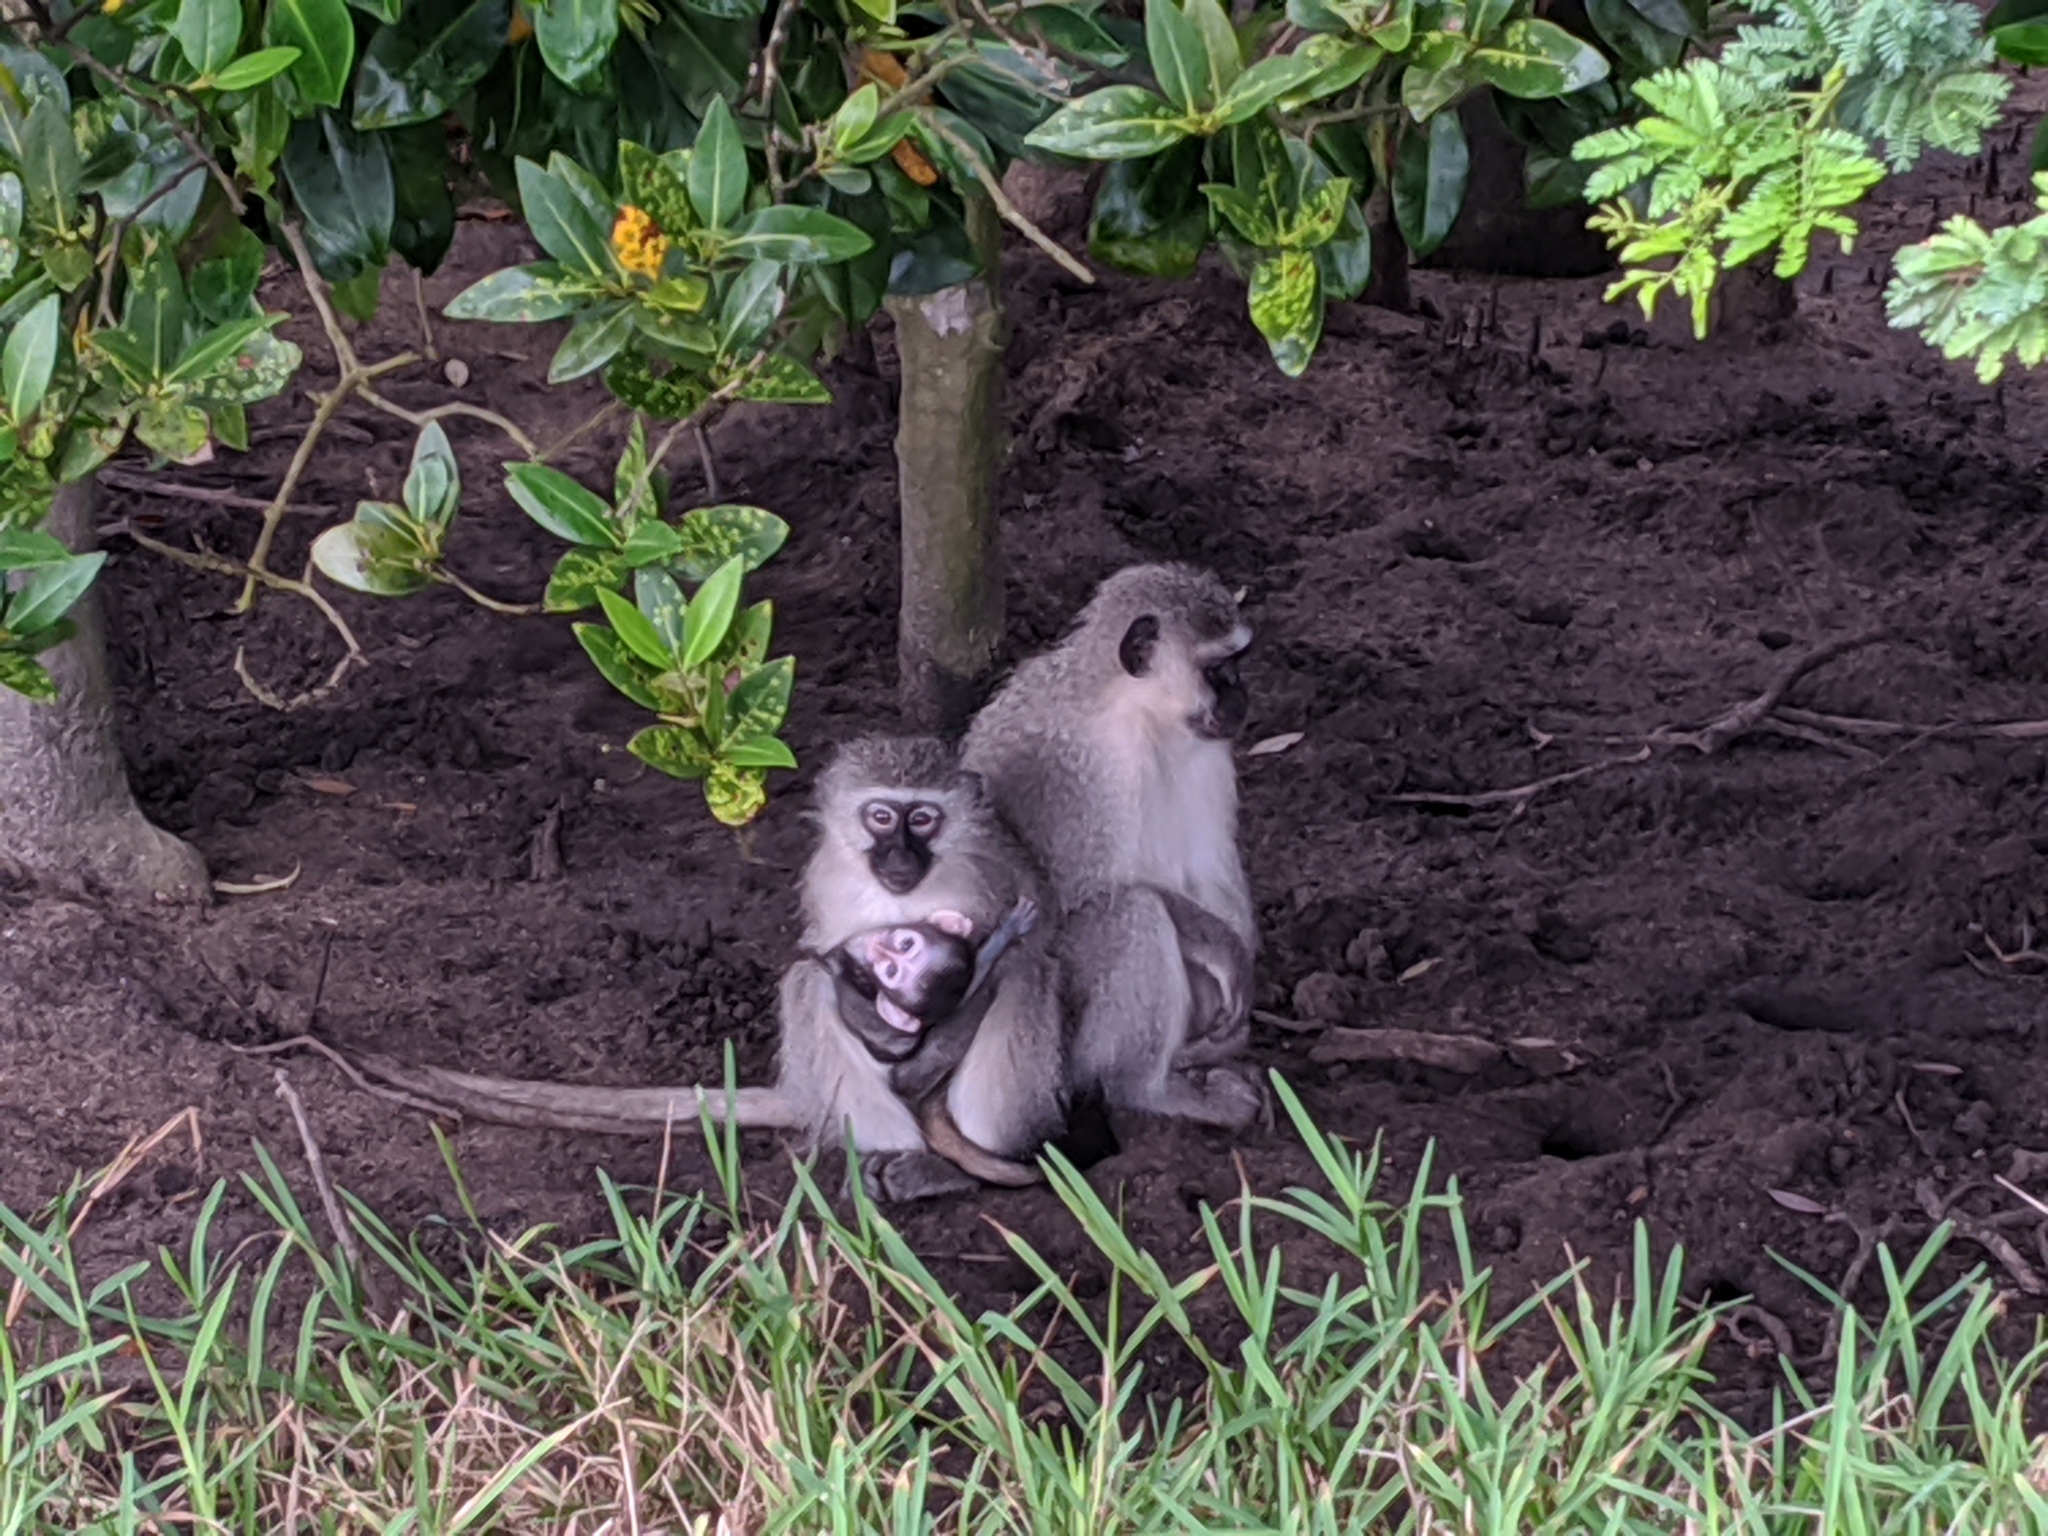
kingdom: Animalia
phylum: Chordata
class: Mammalia
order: Primates
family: Cercopithecidae
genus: Chlorocebus
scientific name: Chlorocebus pygerythrus
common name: Vervet monkey
